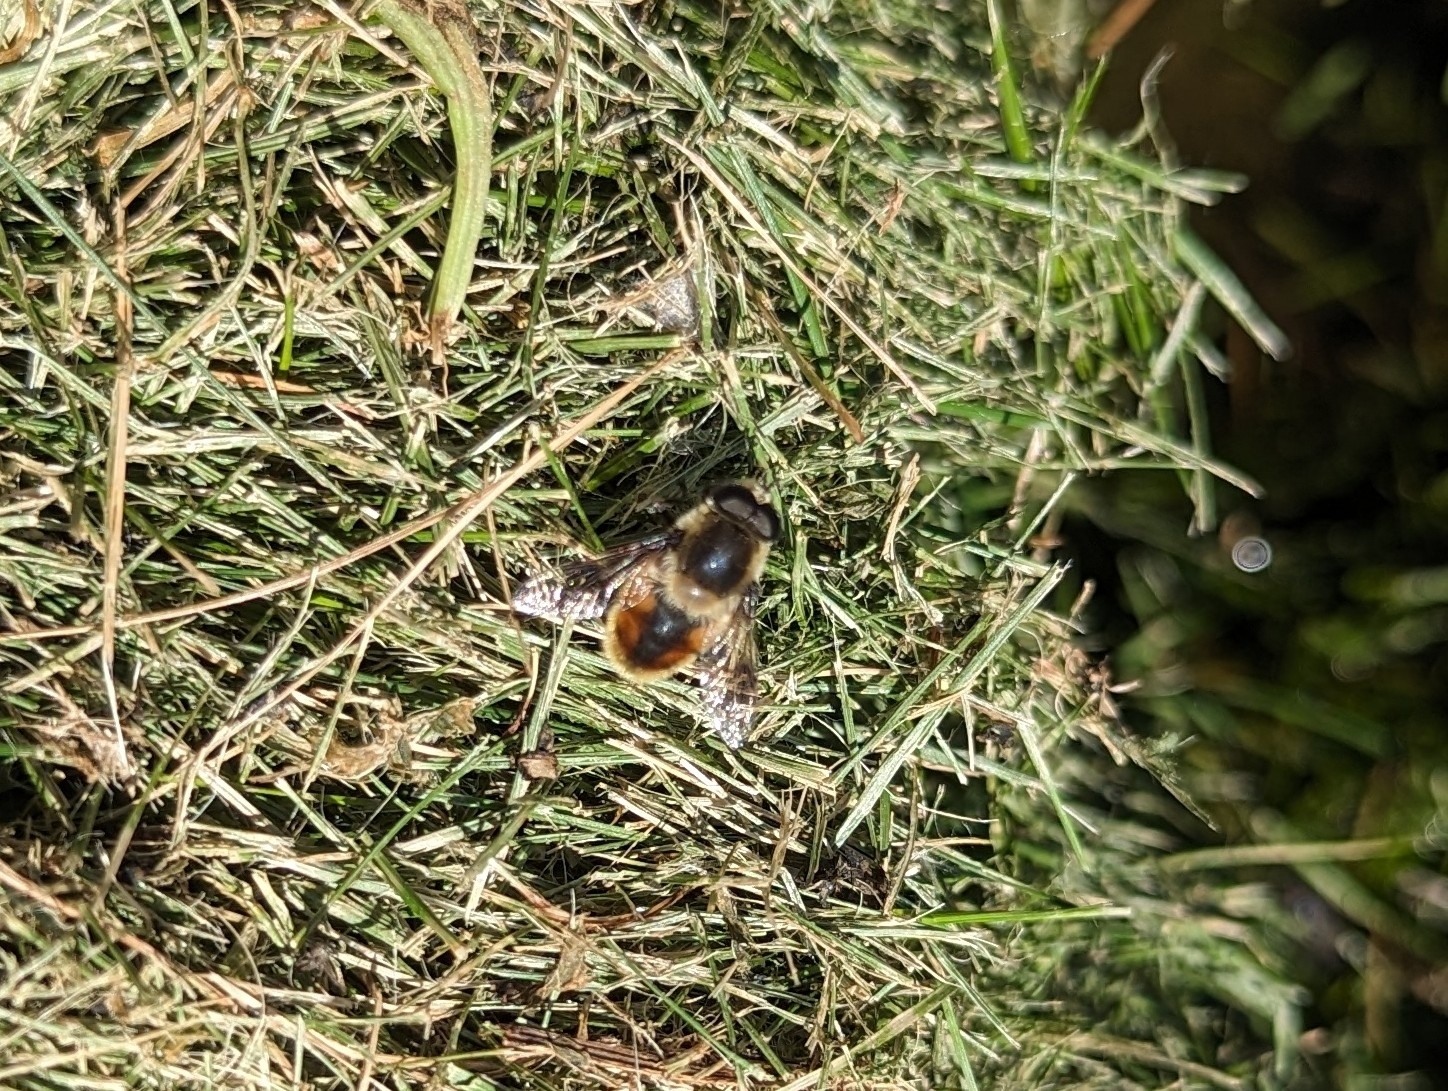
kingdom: Animalia
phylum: Arthropoda
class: Insecta
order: Diptera
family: Syrphidae
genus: Eristalis
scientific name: Eristalis anthophorina
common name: Orange-spotted drone fly
